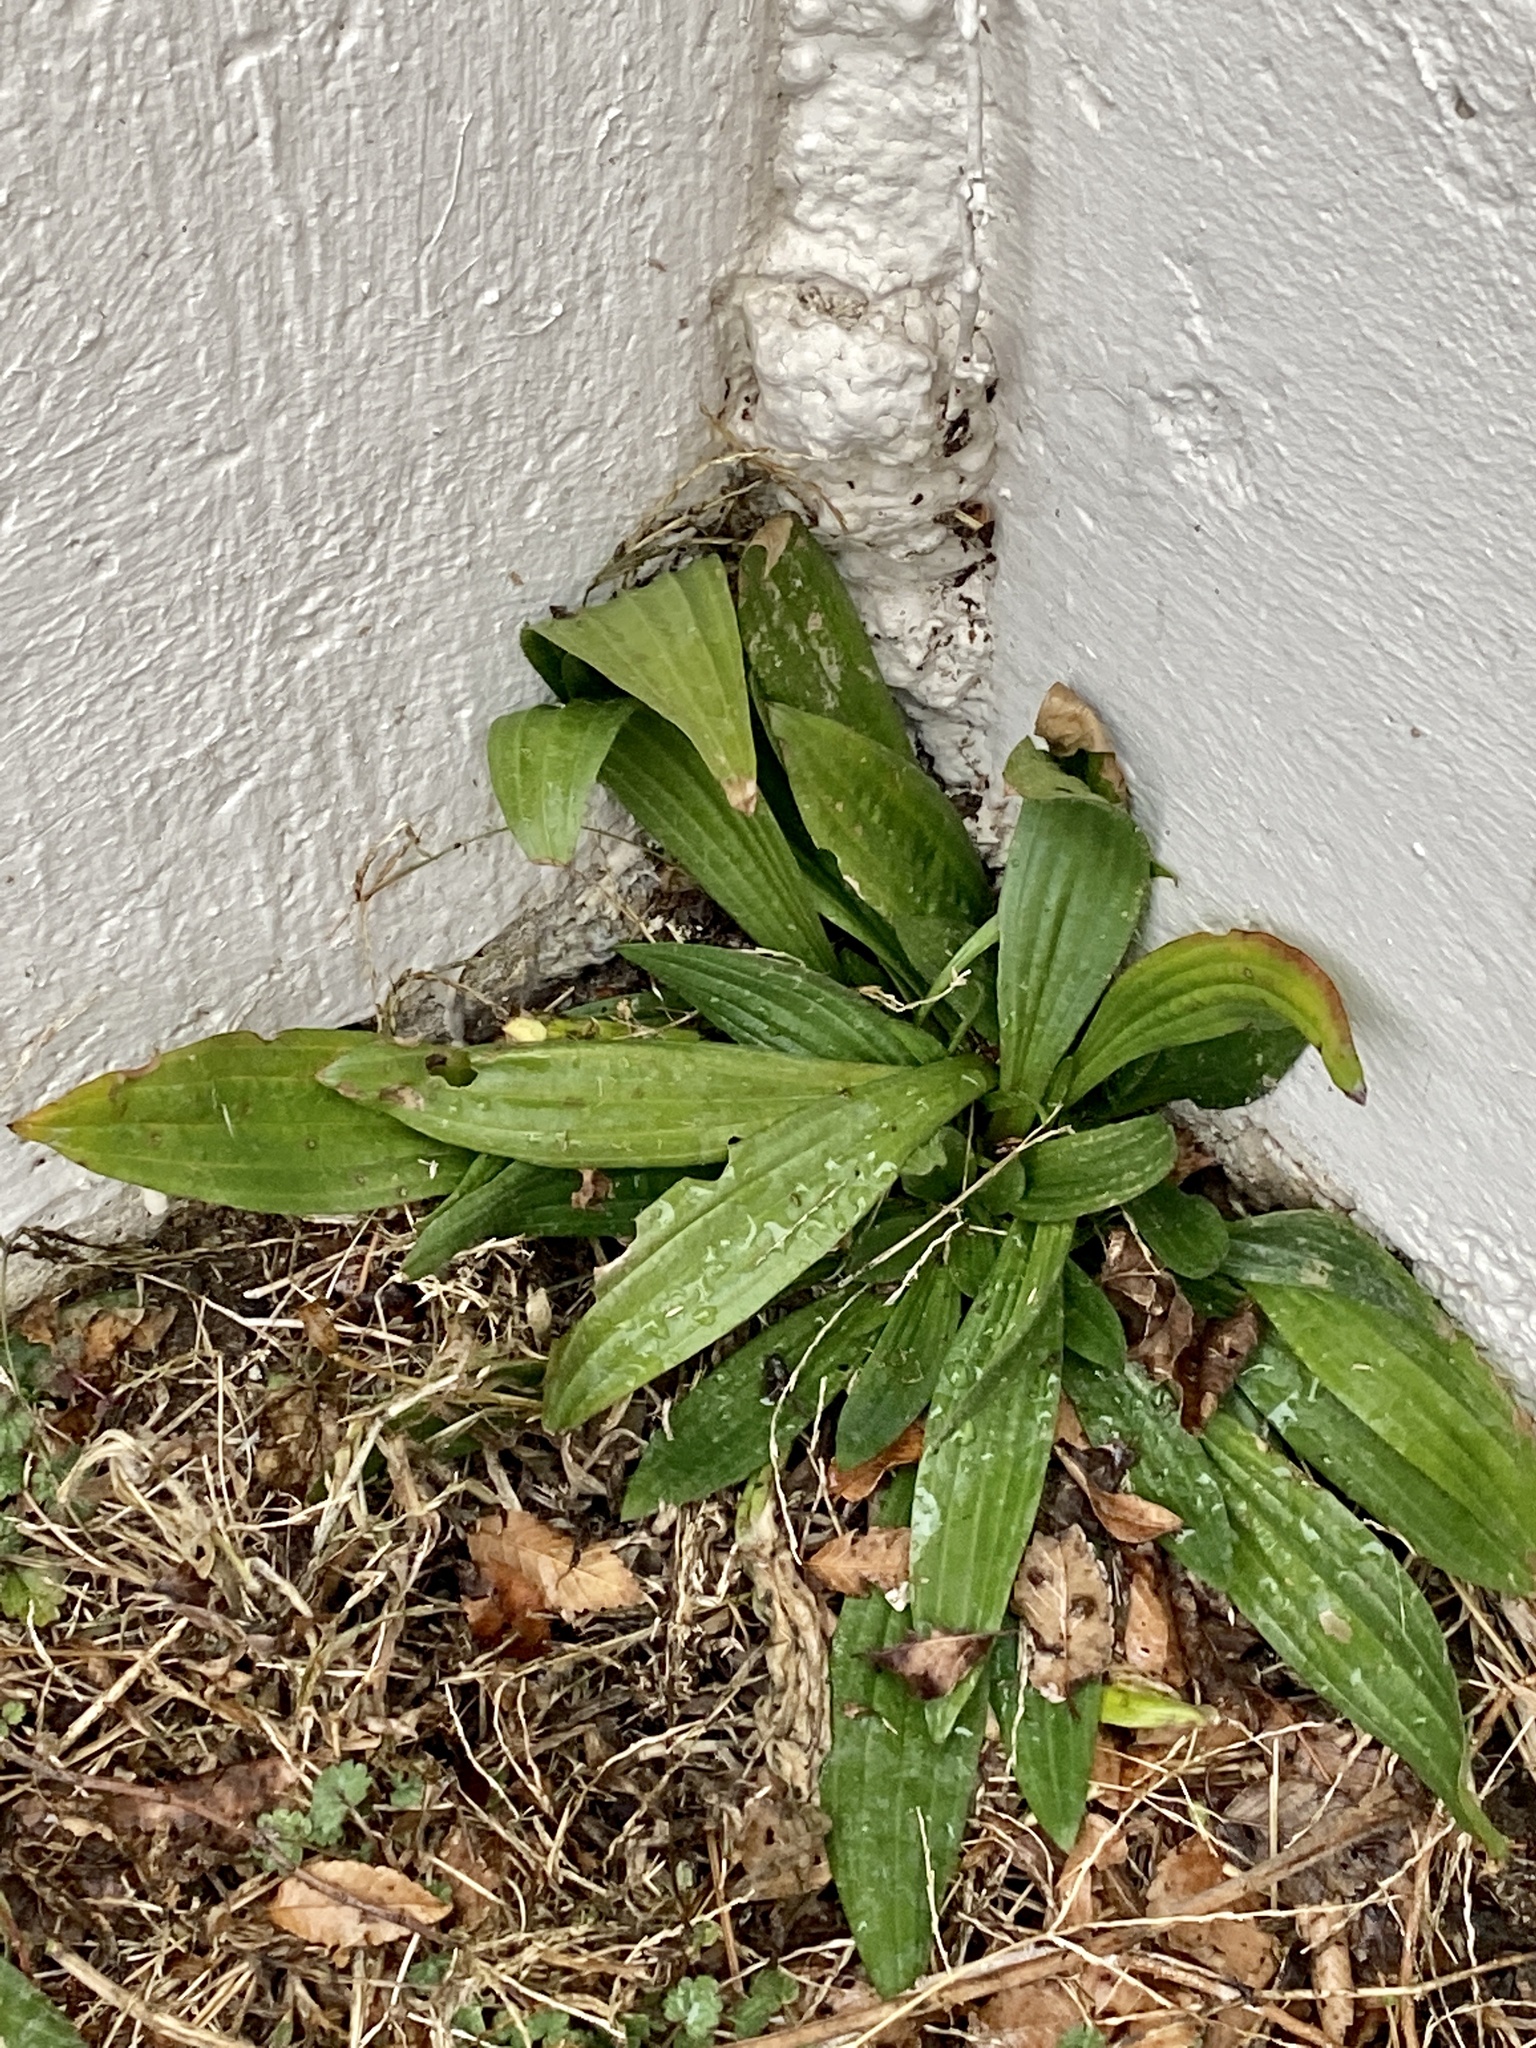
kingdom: Plantae
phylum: Tracheophyta
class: Magnoliopsida
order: Lamiales
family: Plantaginaceae
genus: Plantago
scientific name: Plantago lanceolata
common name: Ribwort plantain
